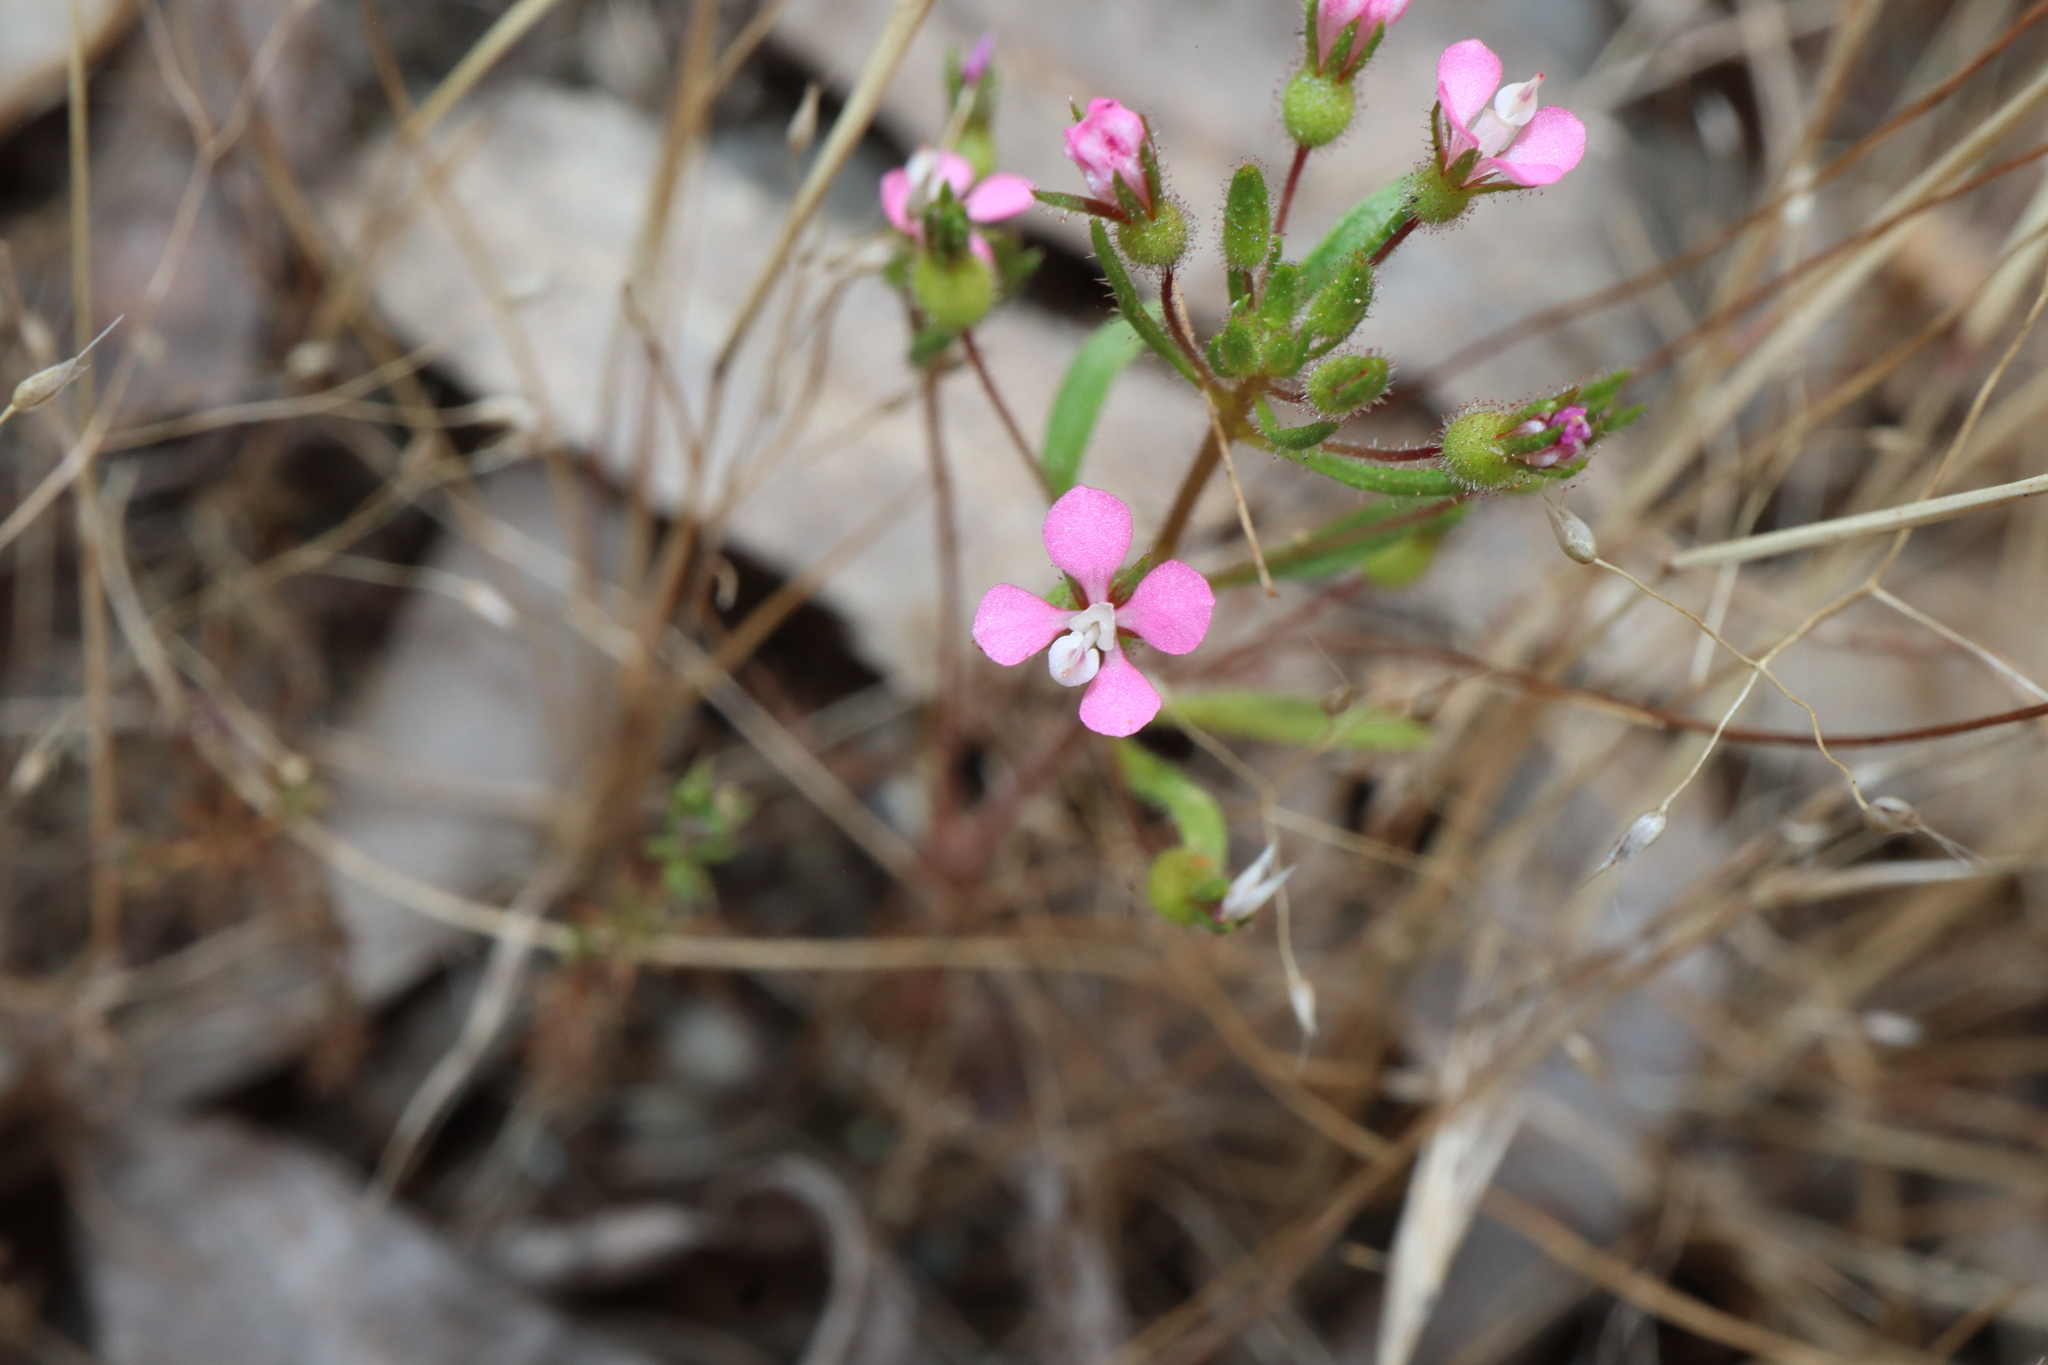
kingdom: Plantae
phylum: Tracheophyta
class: Magnoliopsida
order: Asterales
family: Stylidiaceae
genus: Levenhookia
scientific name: Levenhookia stipitata
